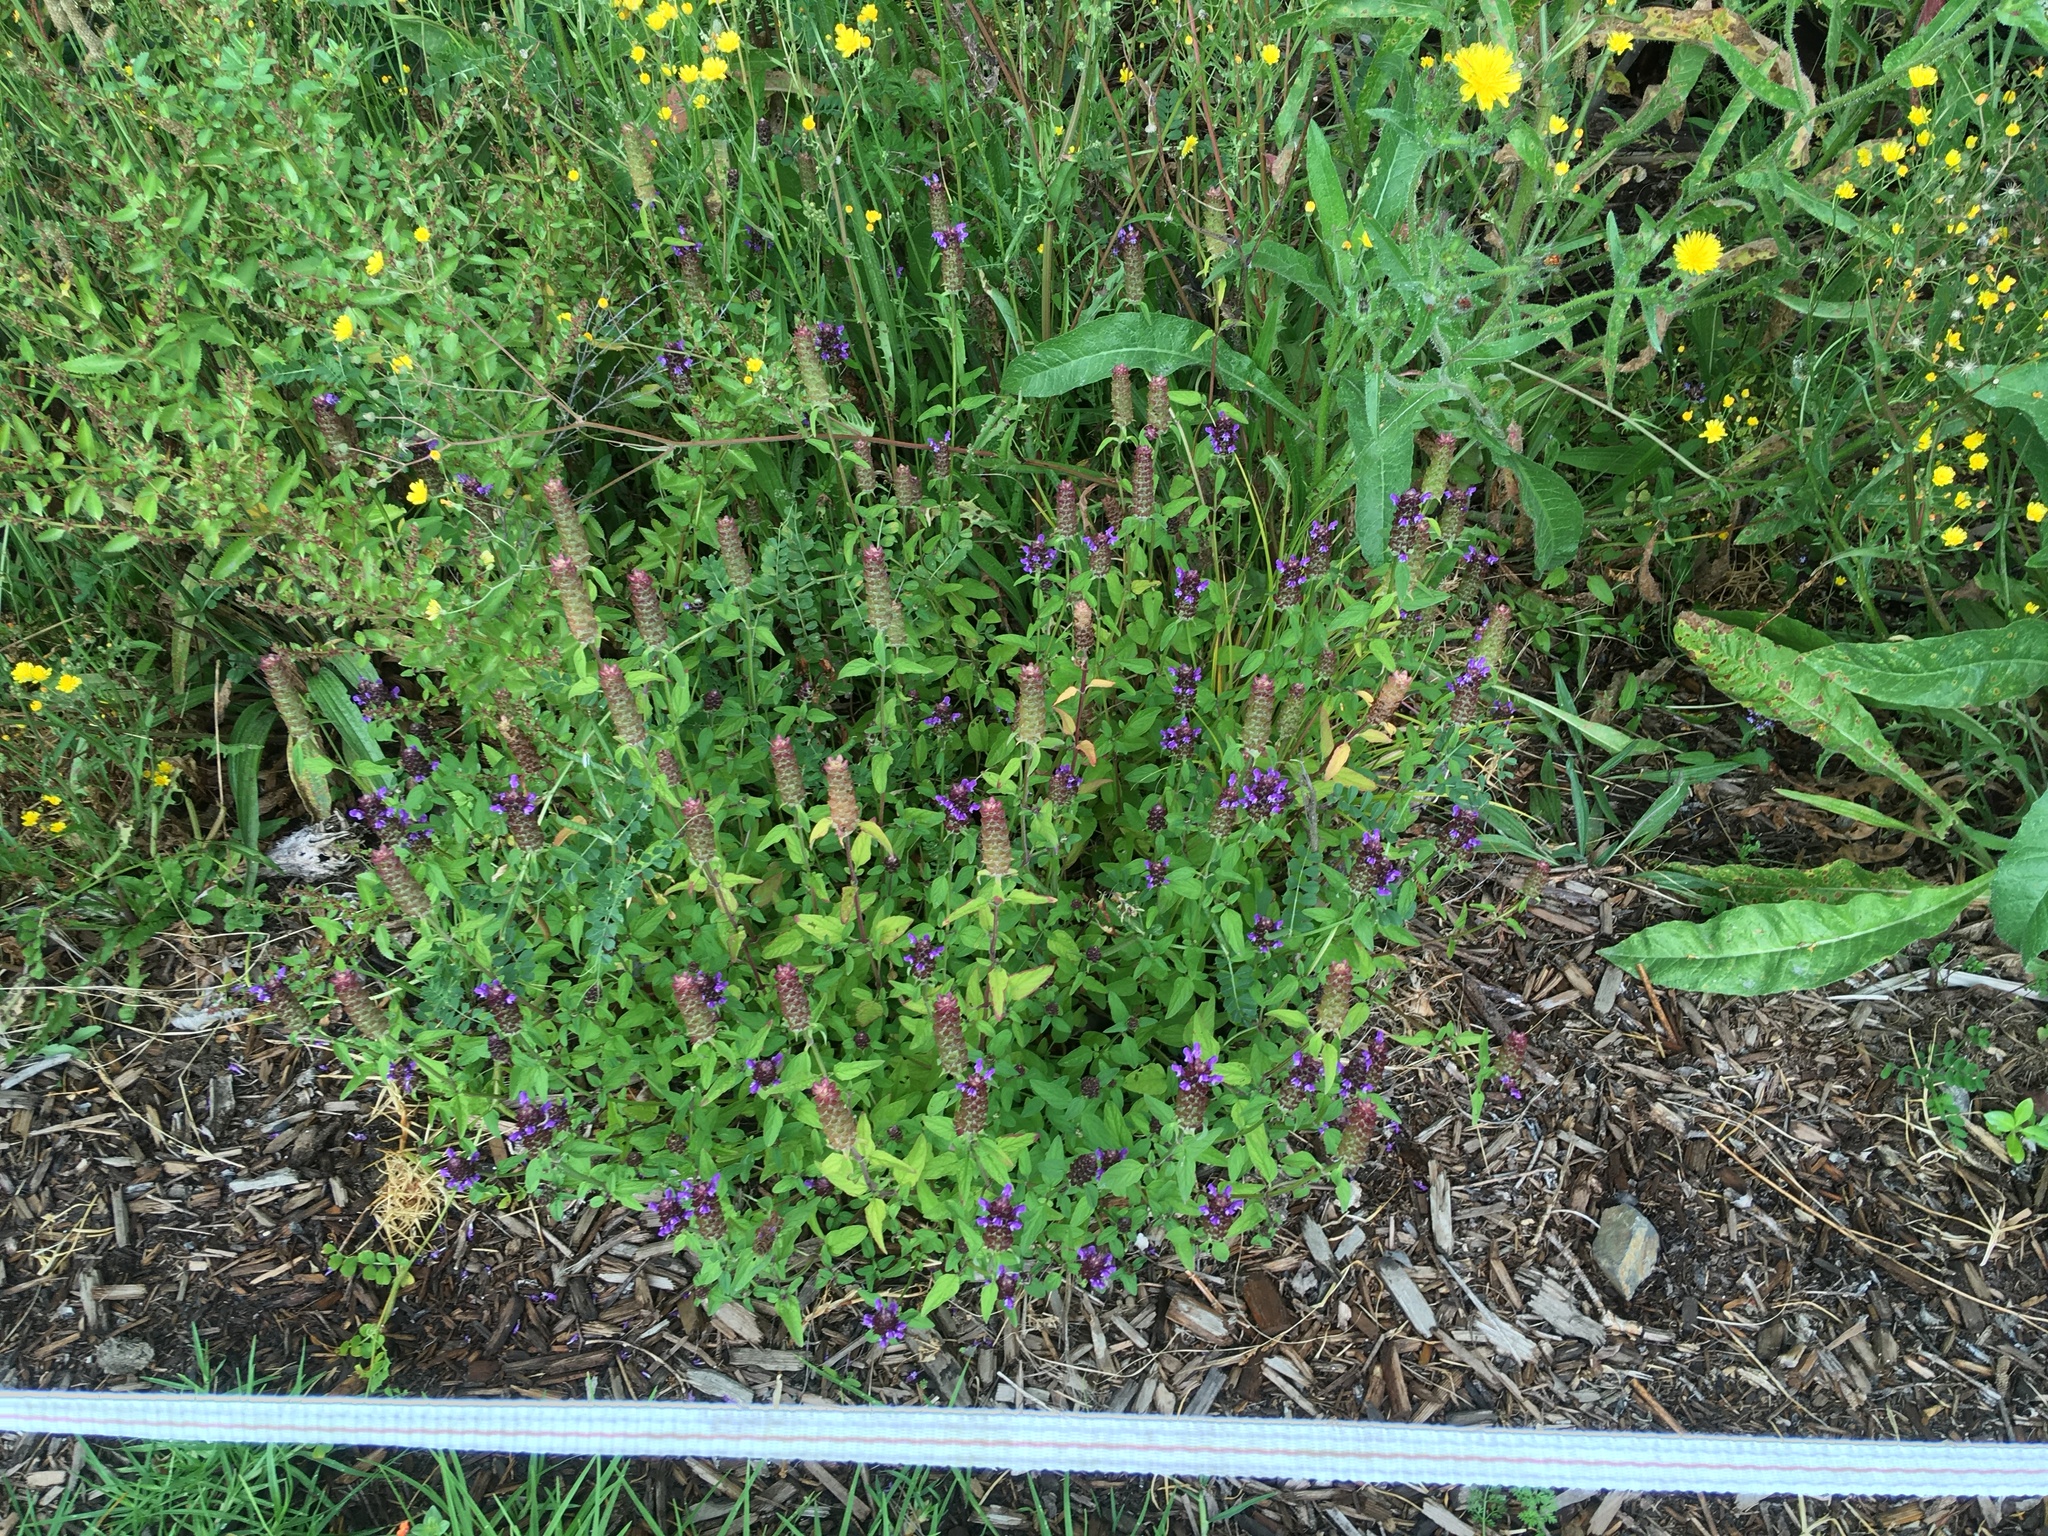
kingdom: Plantae
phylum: Tracheophyta
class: Magnoliopsida
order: Lamiales
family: Lamiaceae
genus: Prunella
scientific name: Prunella vulgaris
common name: Heal-all
